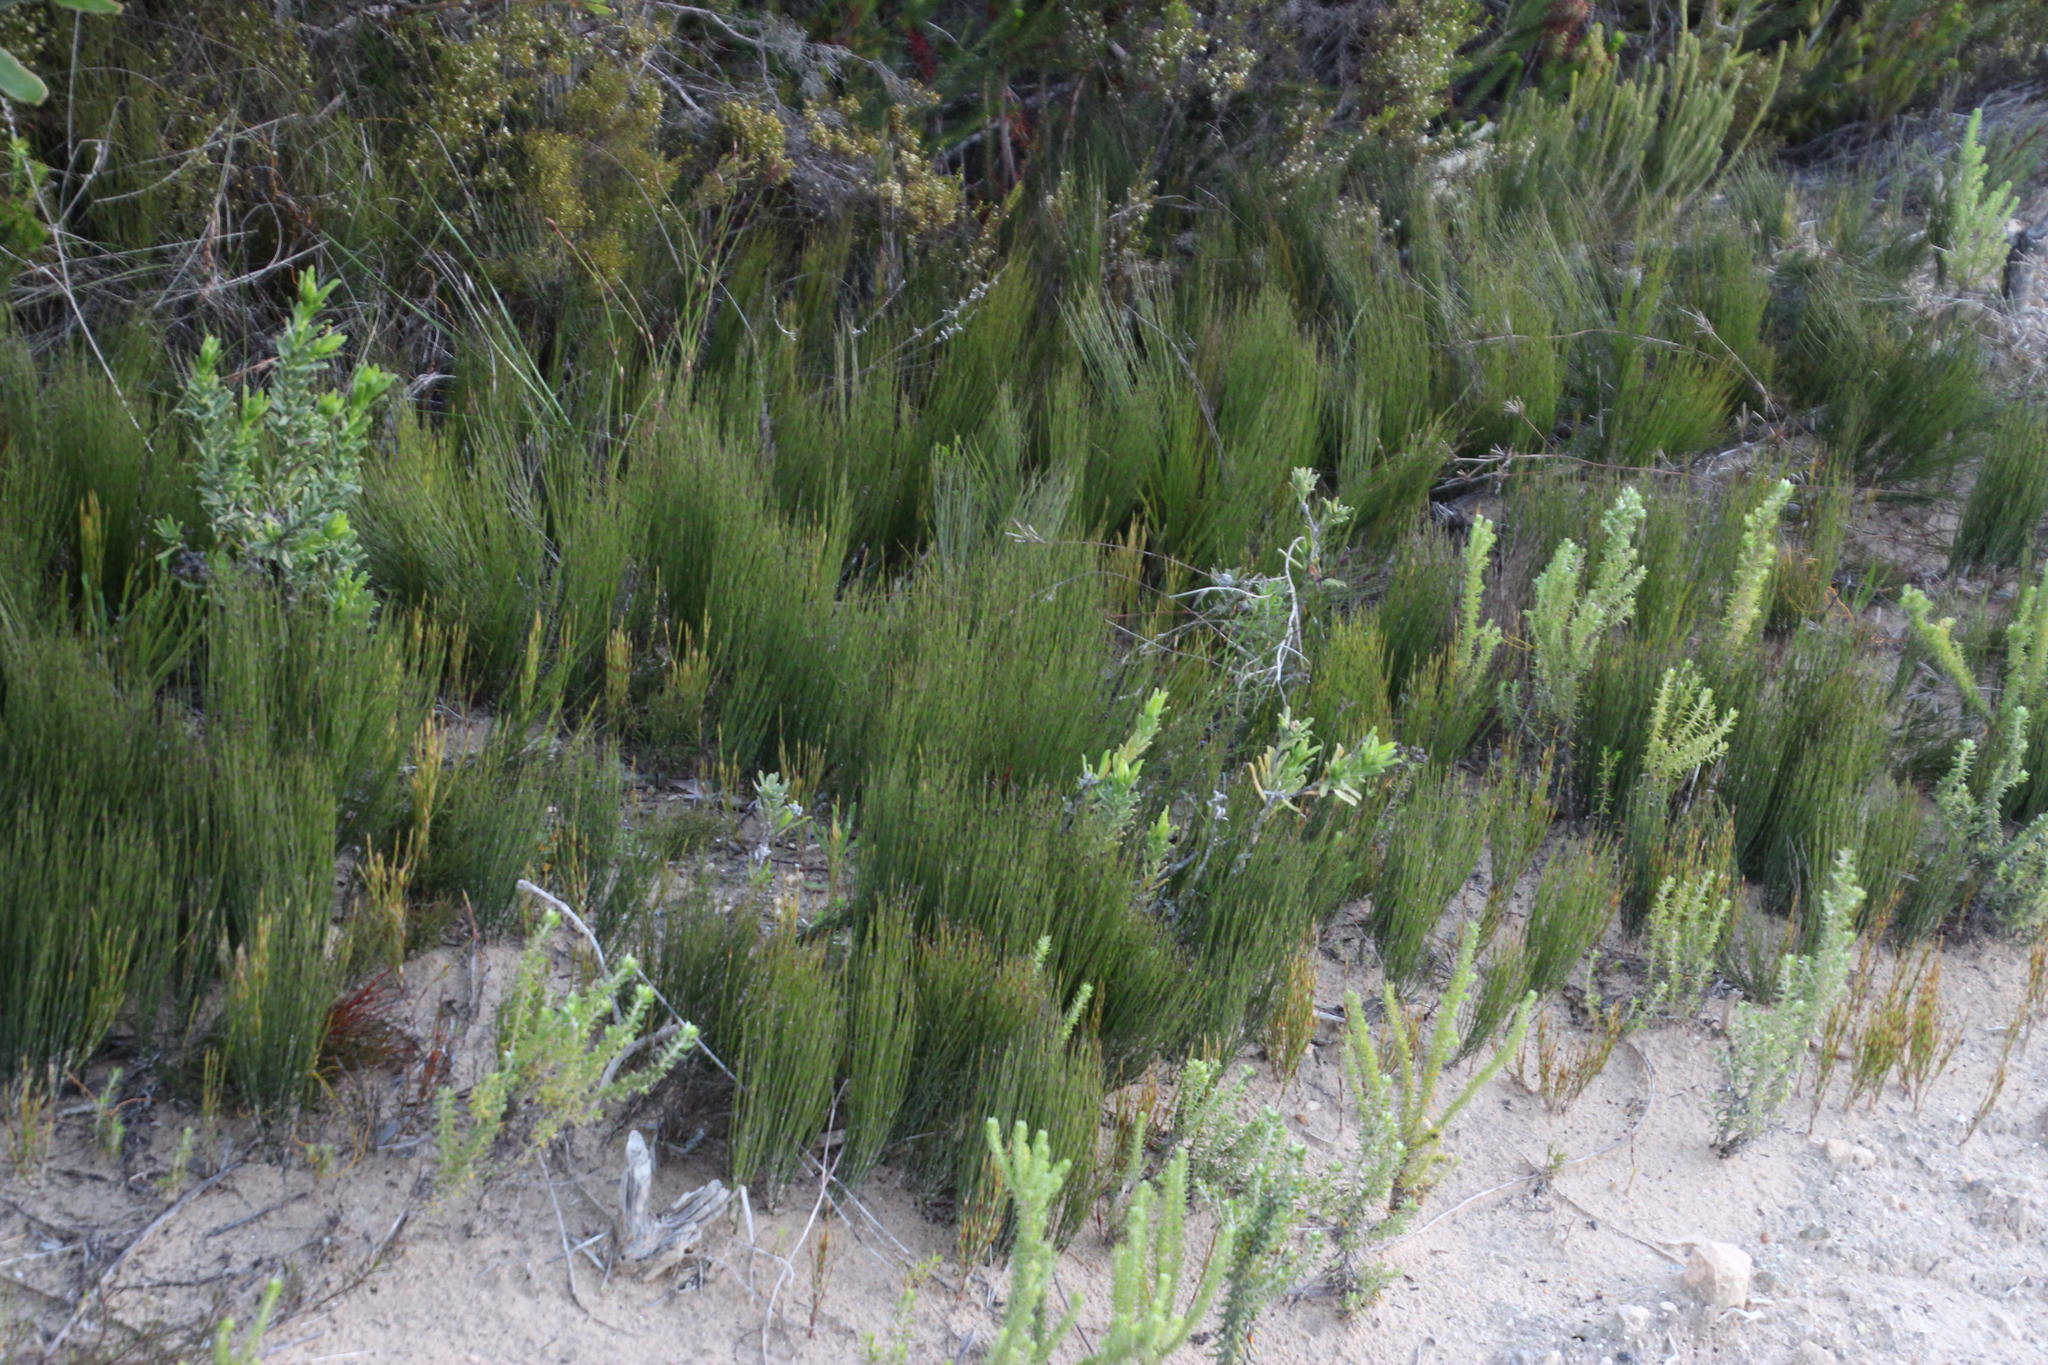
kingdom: Plantae
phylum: Tracheophyta
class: Liliopsida
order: Poales
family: Restionaceae
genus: Elegia
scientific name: Elegia microcarpa
